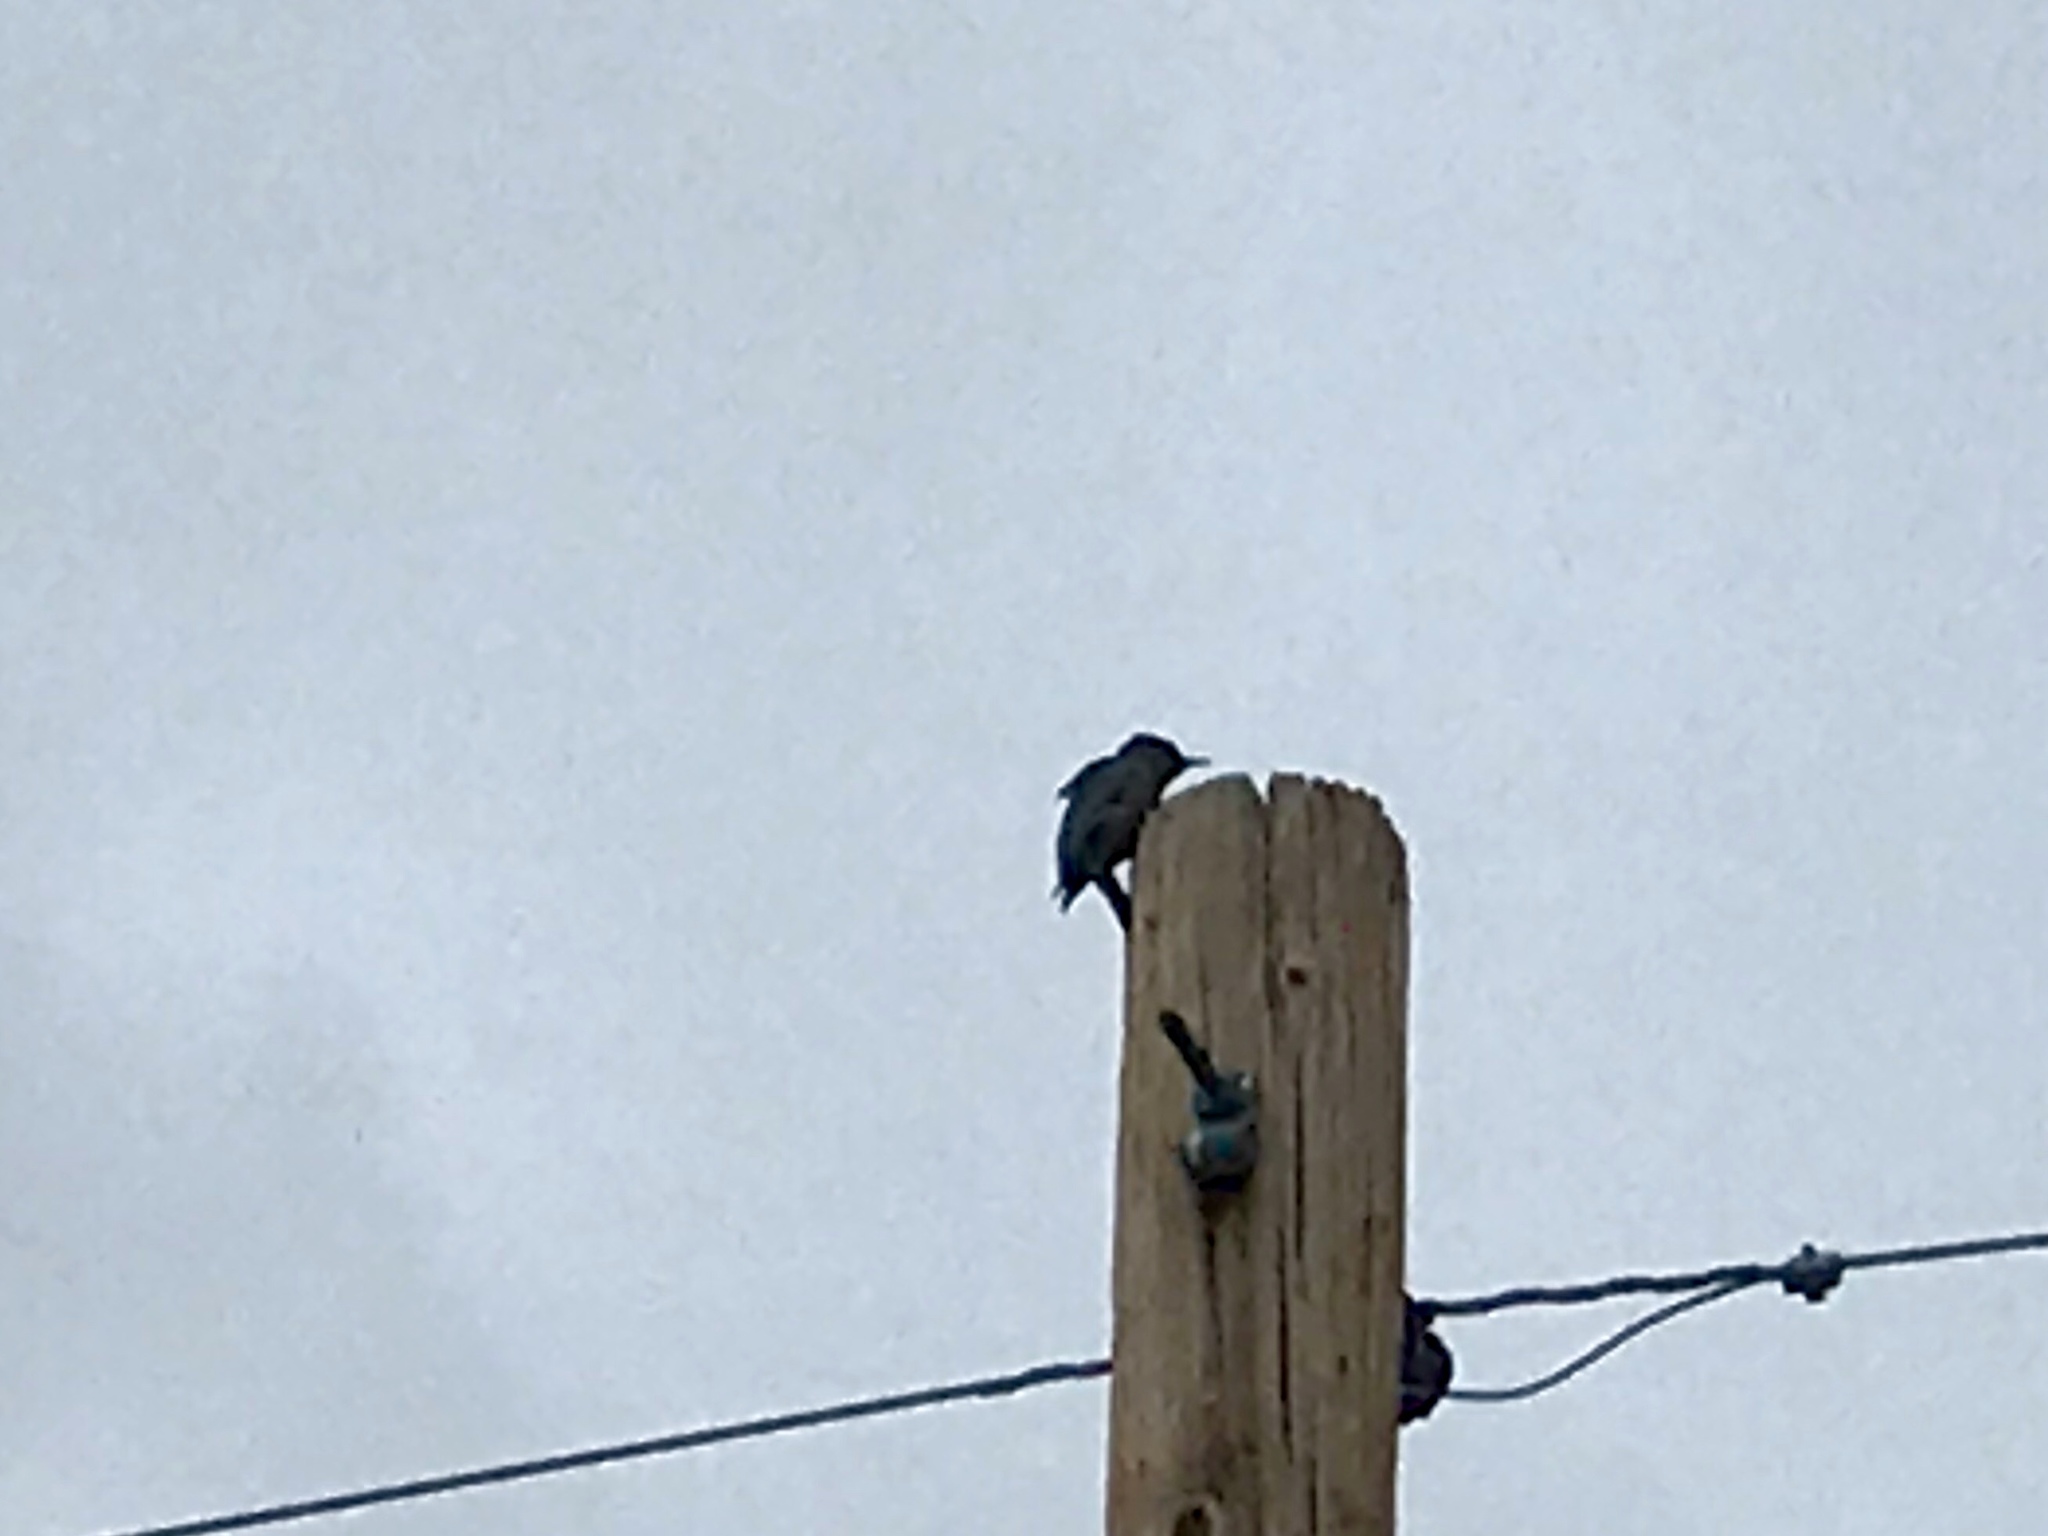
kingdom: Animalia
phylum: Chordata
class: Aves
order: Piciformes
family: Picidae
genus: Melanerpes
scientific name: Melanerpes uropygialis
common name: Gila woodpecker
